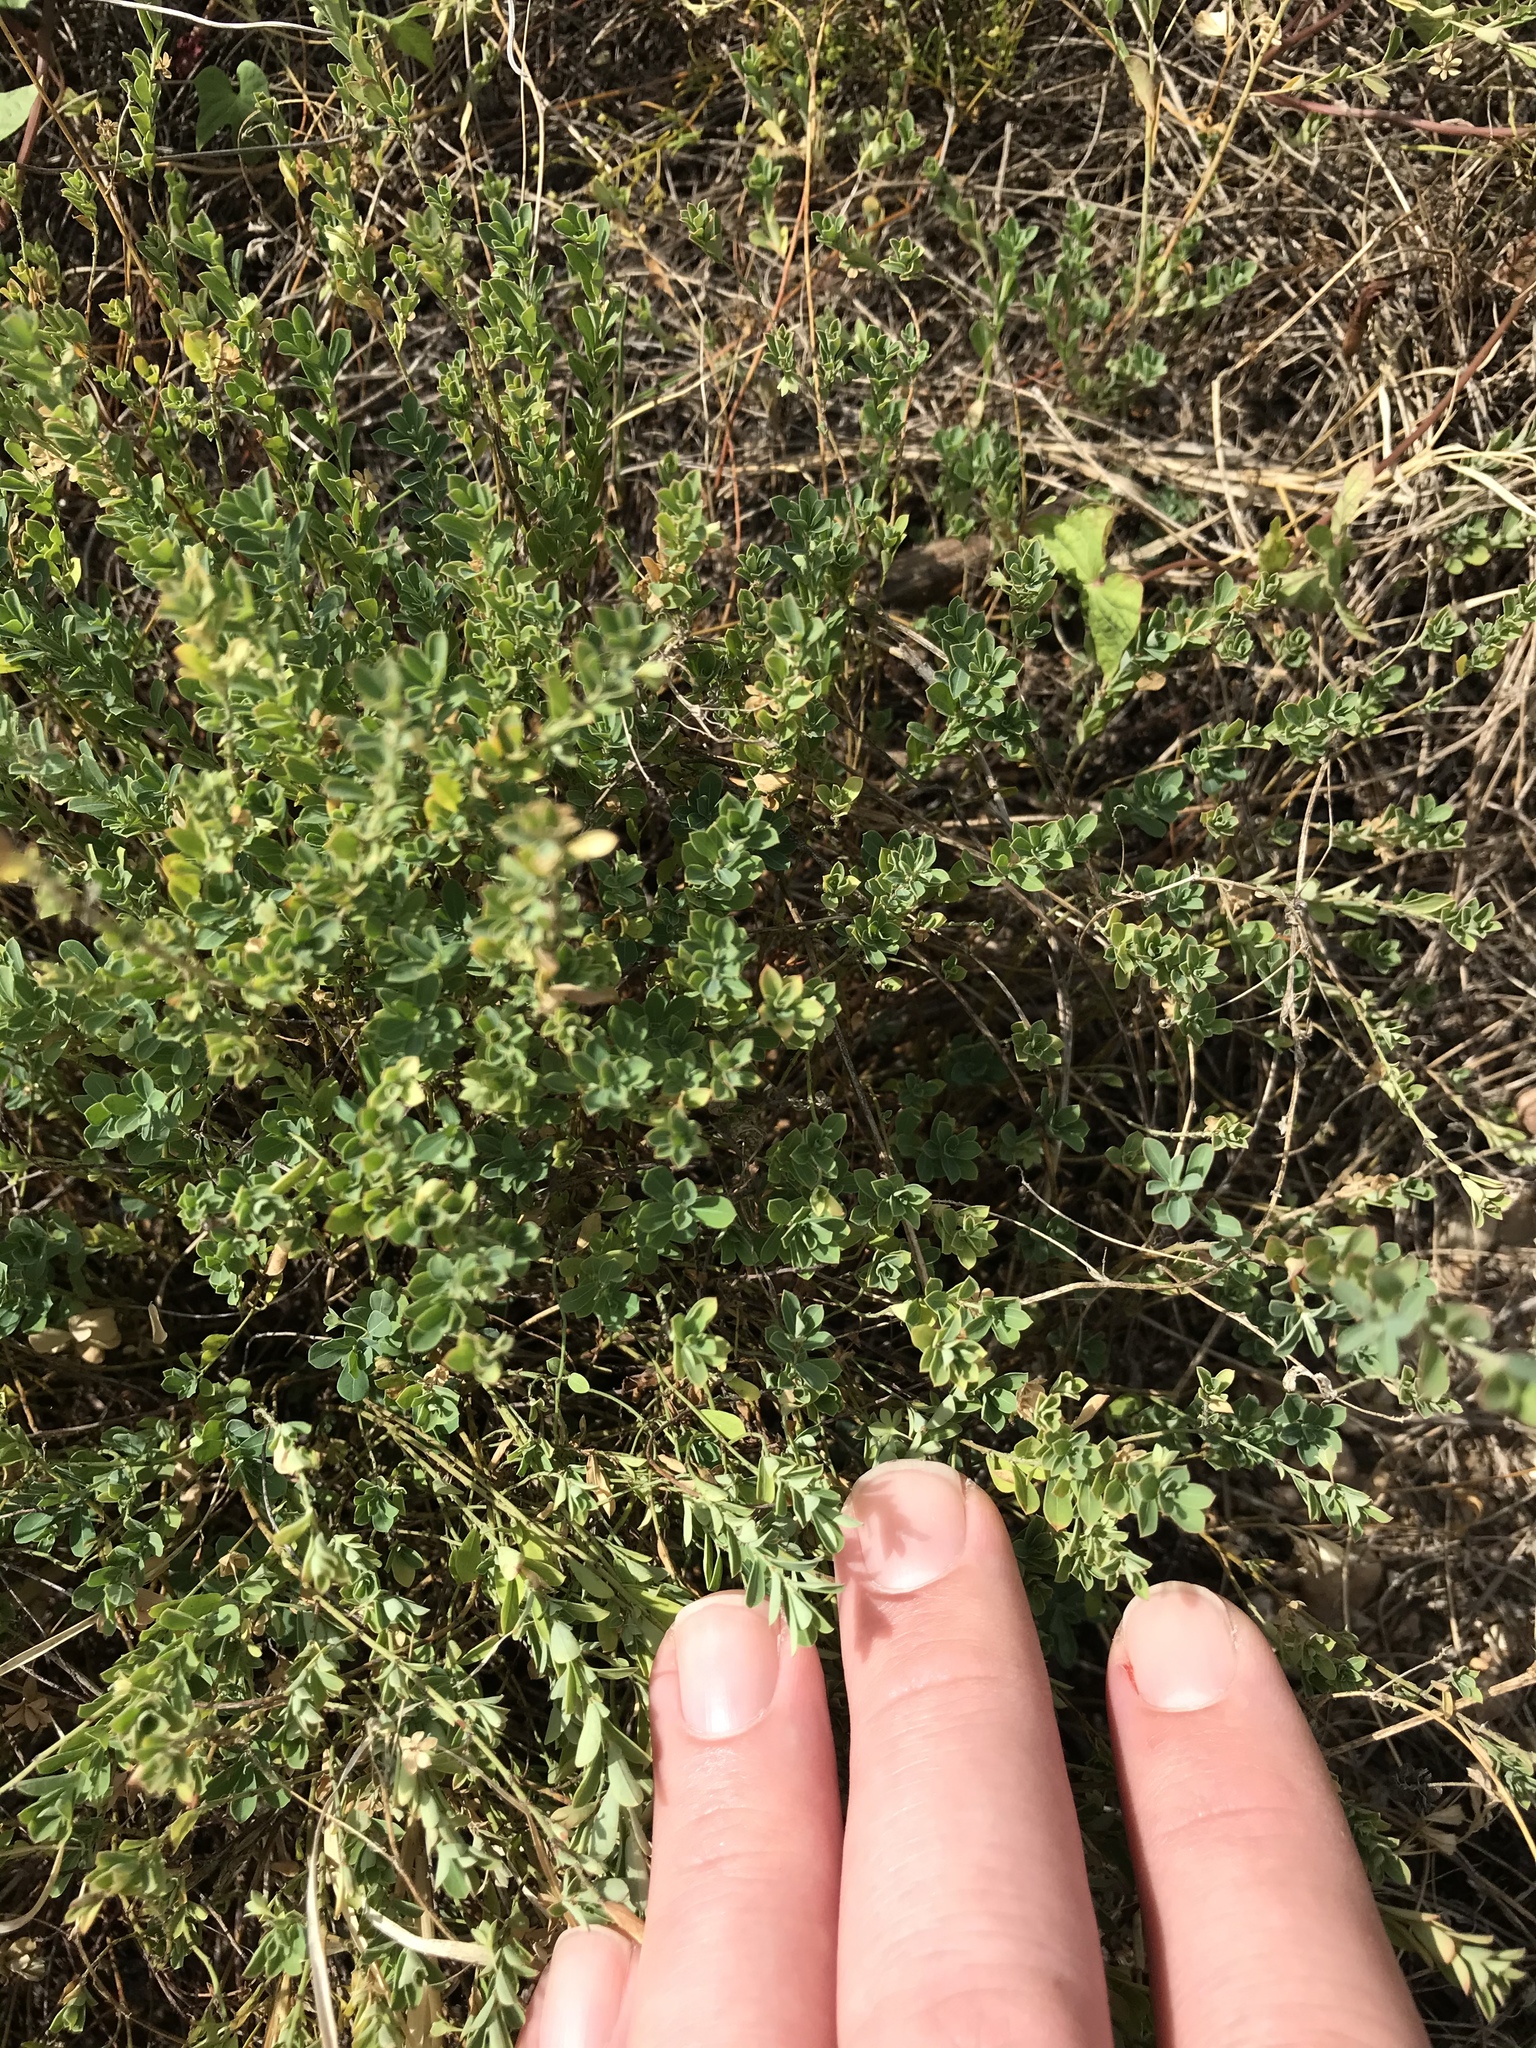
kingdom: Plantae
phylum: Tracheophyta
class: Magnoliopsida
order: Malpighiales
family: Phyllanthaceae
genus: Phyllanthus
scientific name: Phyllanthus polygonoides
